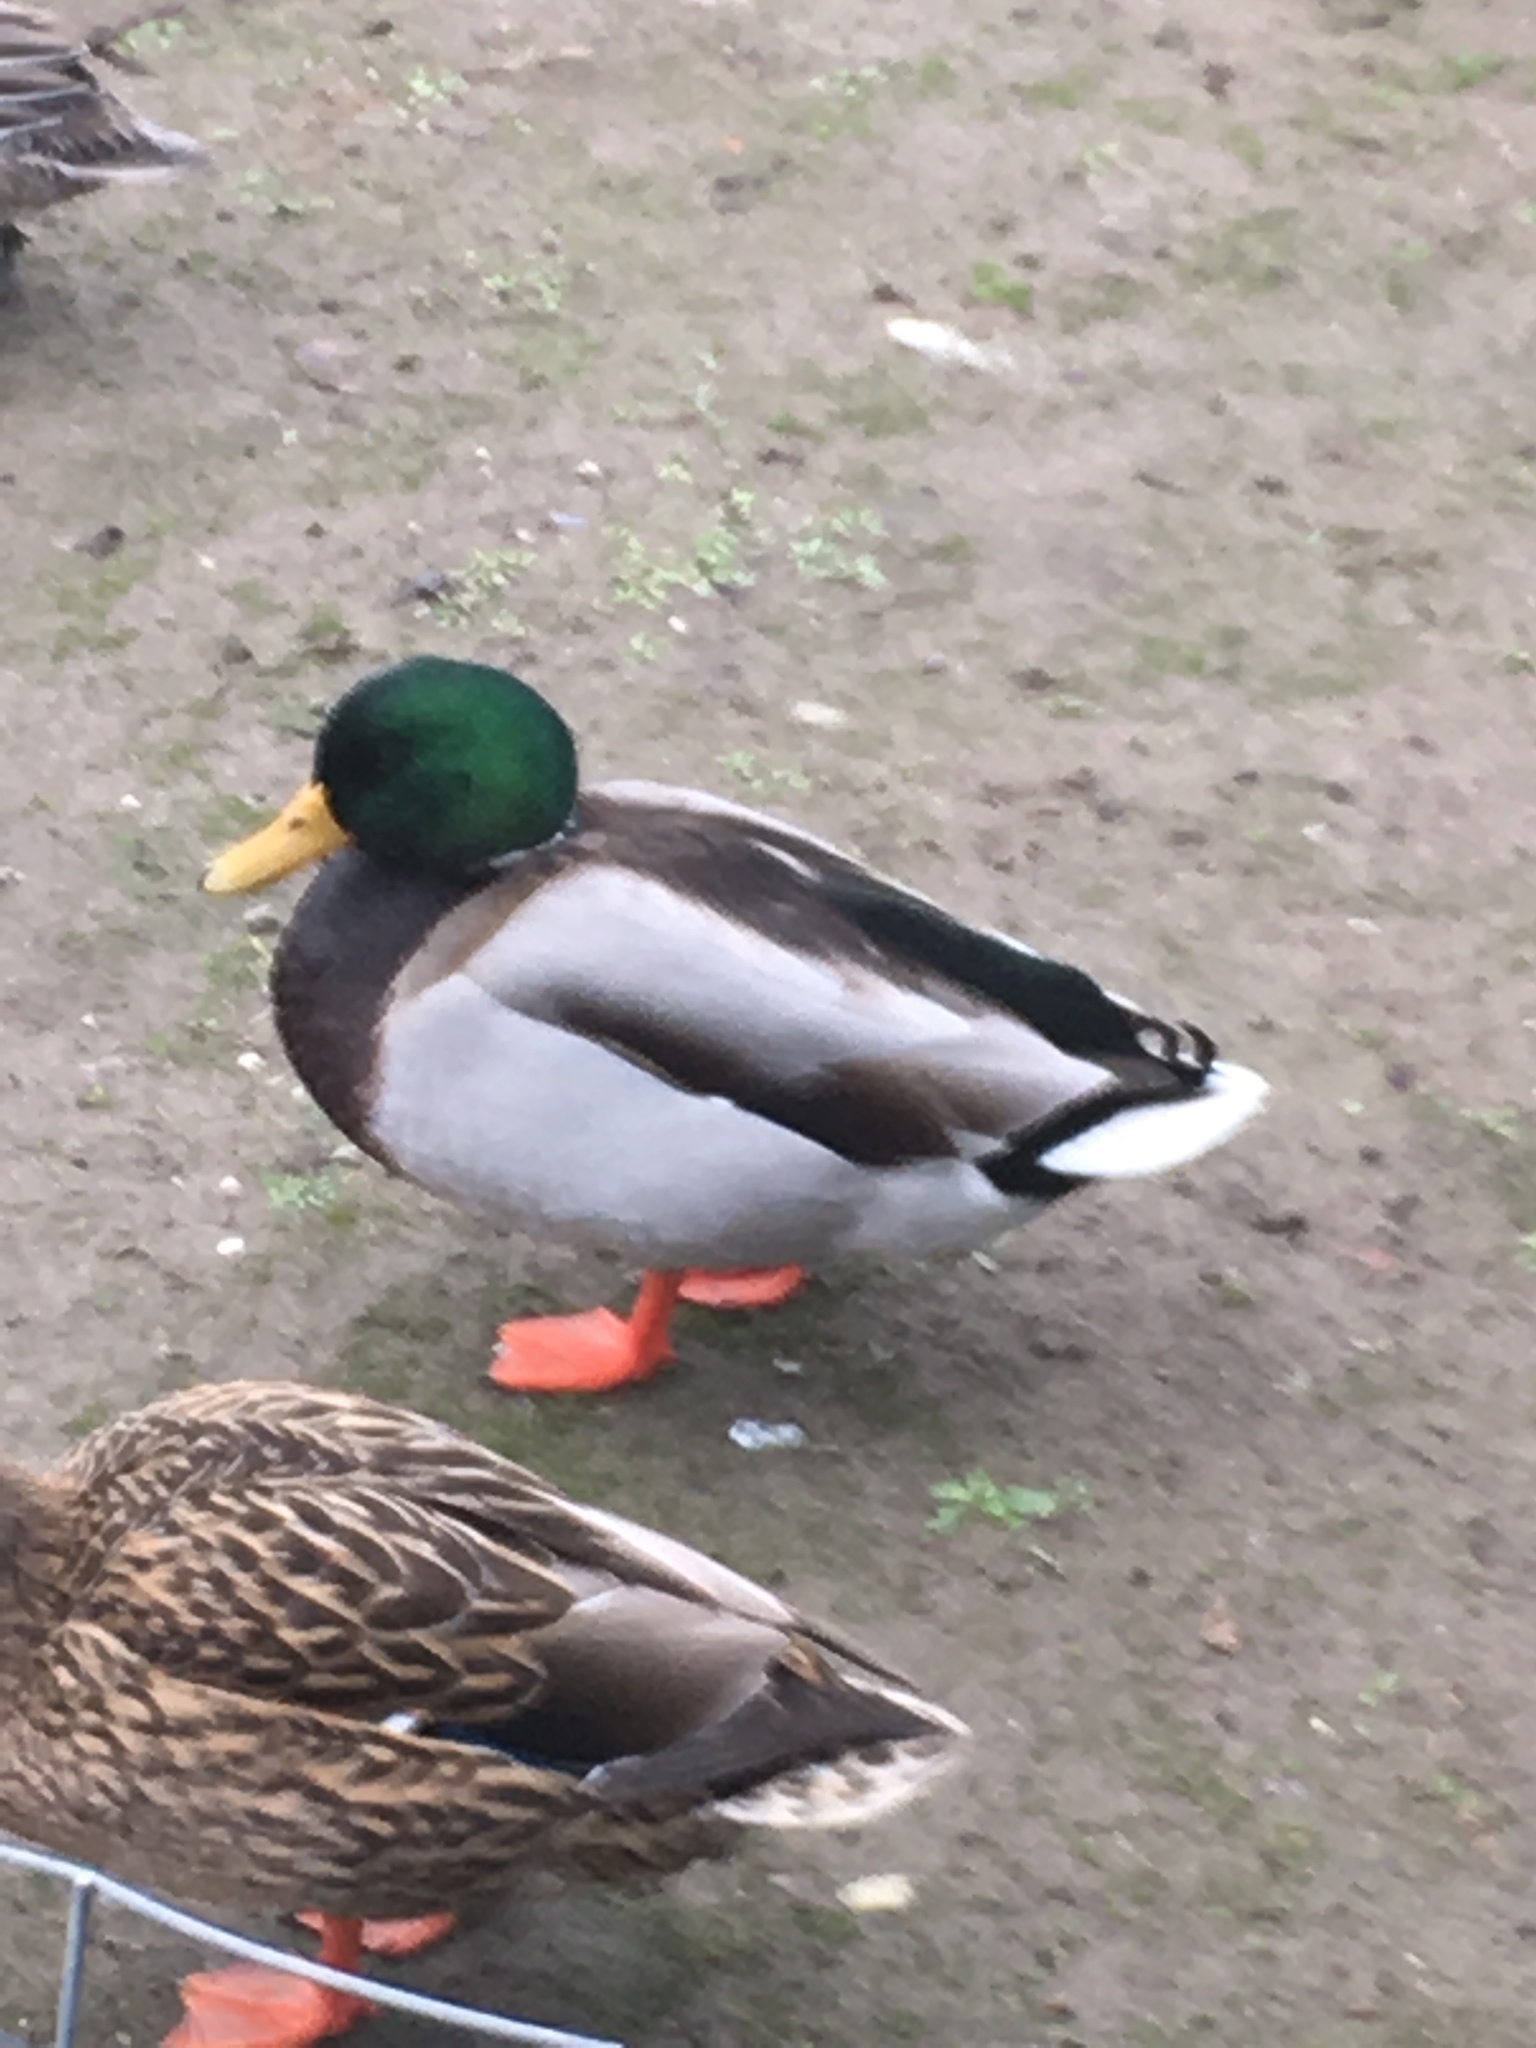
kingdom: Animalia
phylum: Chordata
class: Aves
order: Anseriformes
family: Anatidae
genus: Anas
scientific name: Anas platyrhynchos
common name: Mallard
